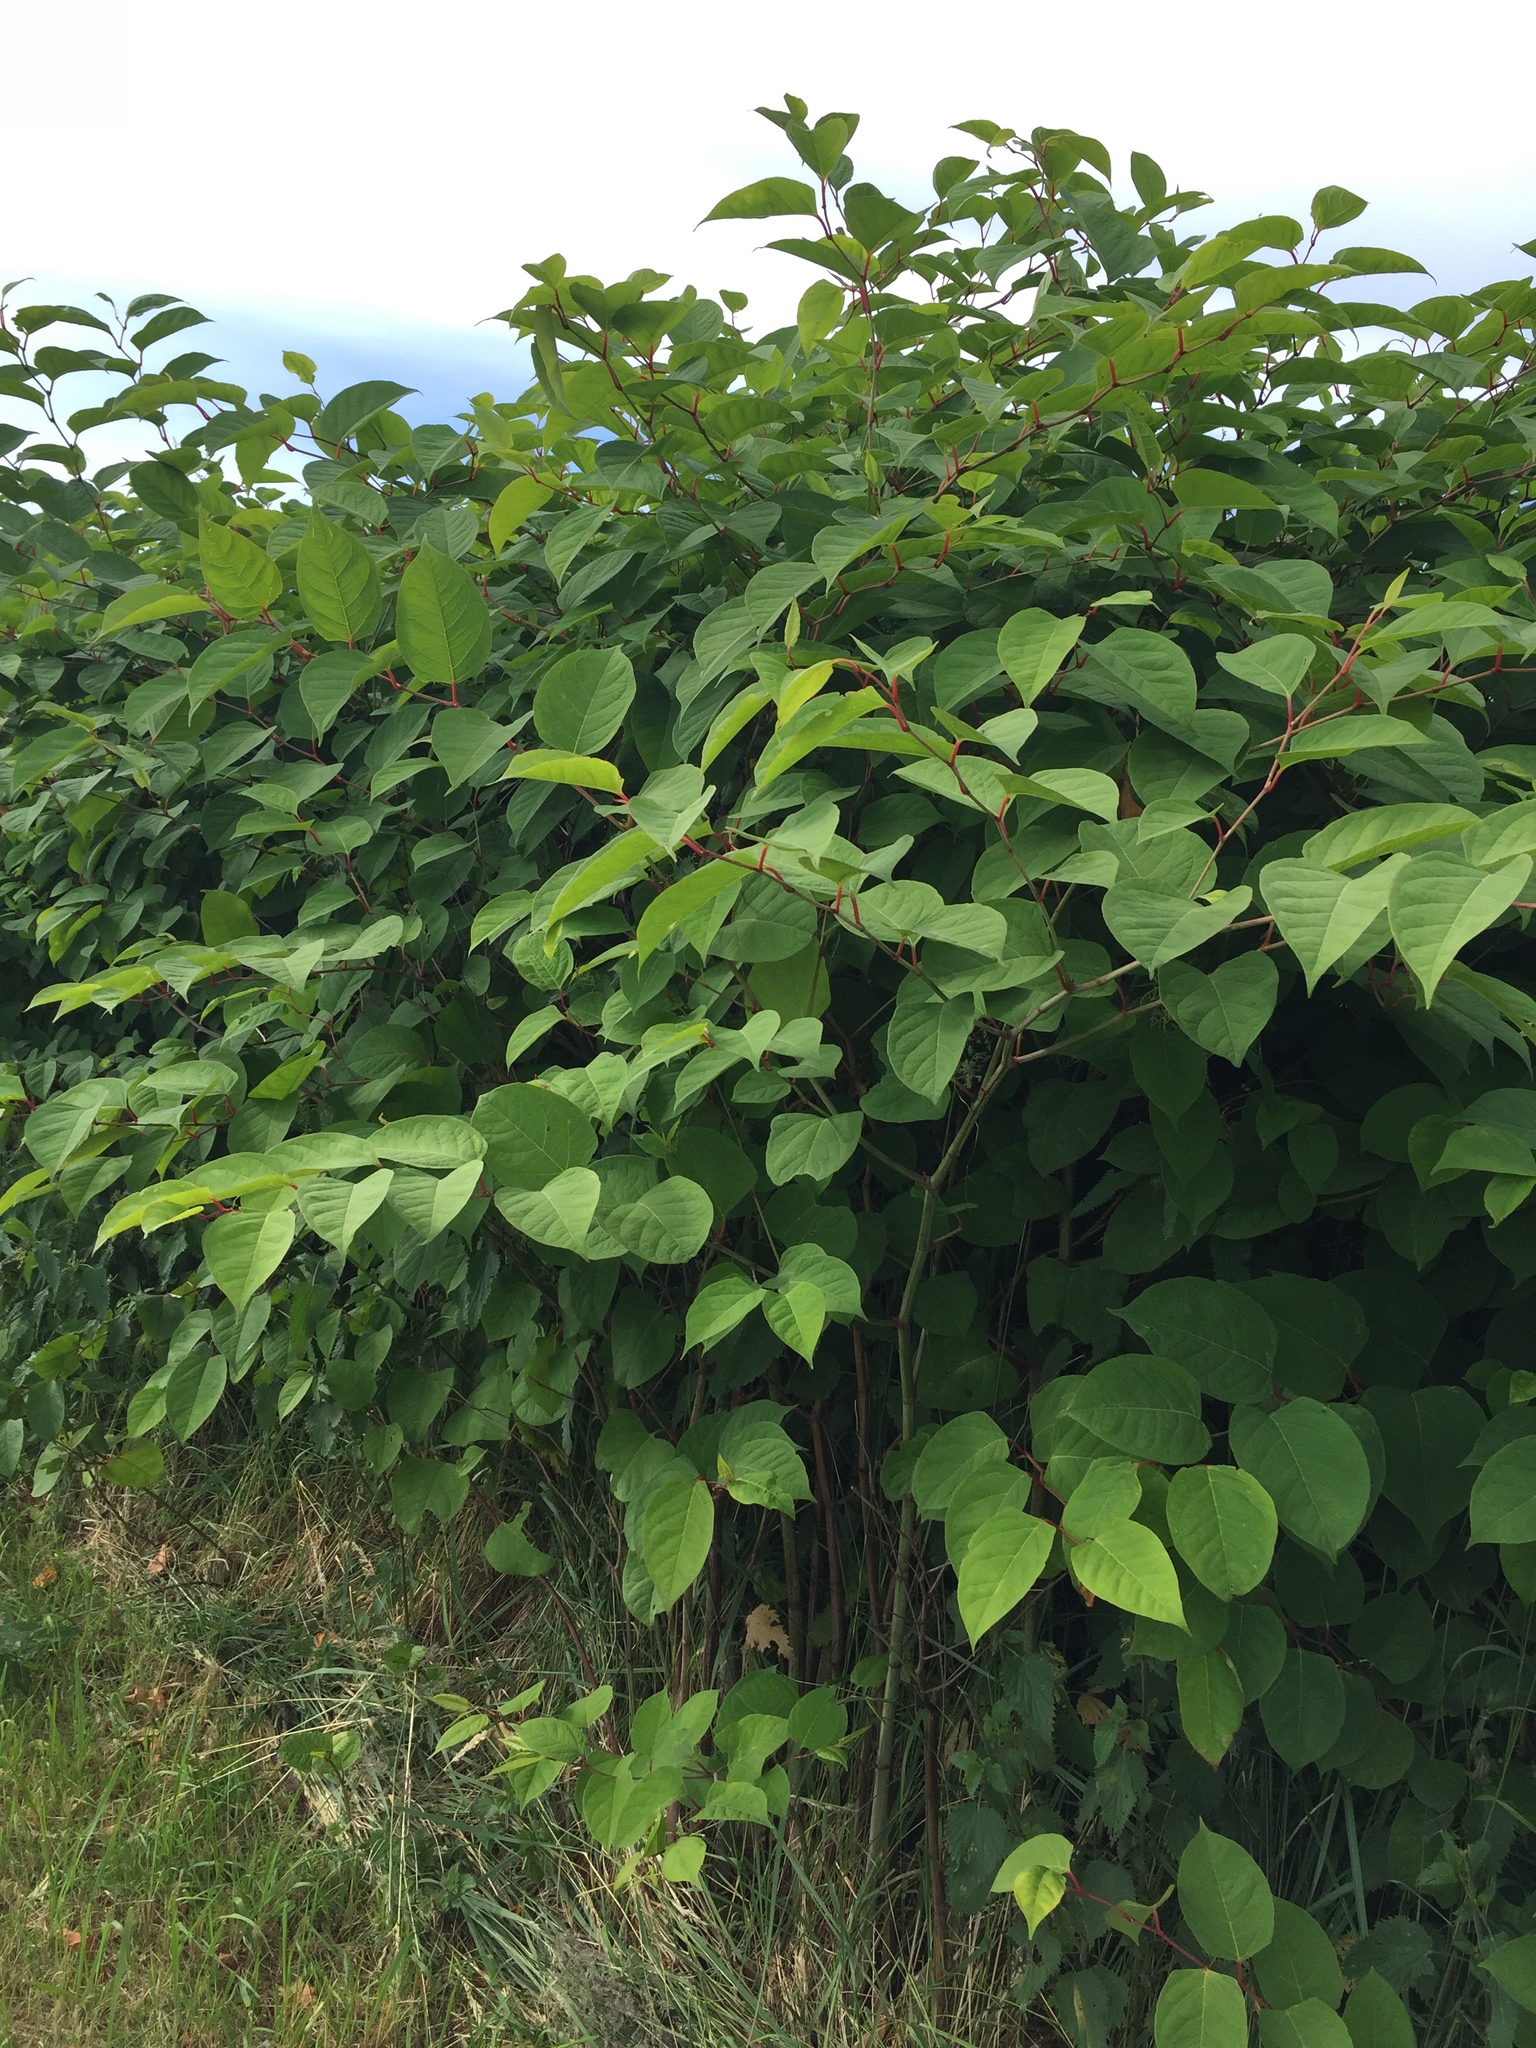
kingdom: Plantae
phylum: Tracheophyta
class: Magnoliopsida
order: Caryophyllales
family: Polygonaceae
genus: Reynoutria
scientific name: Reynoutria japonica
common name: Japanese knotweed
